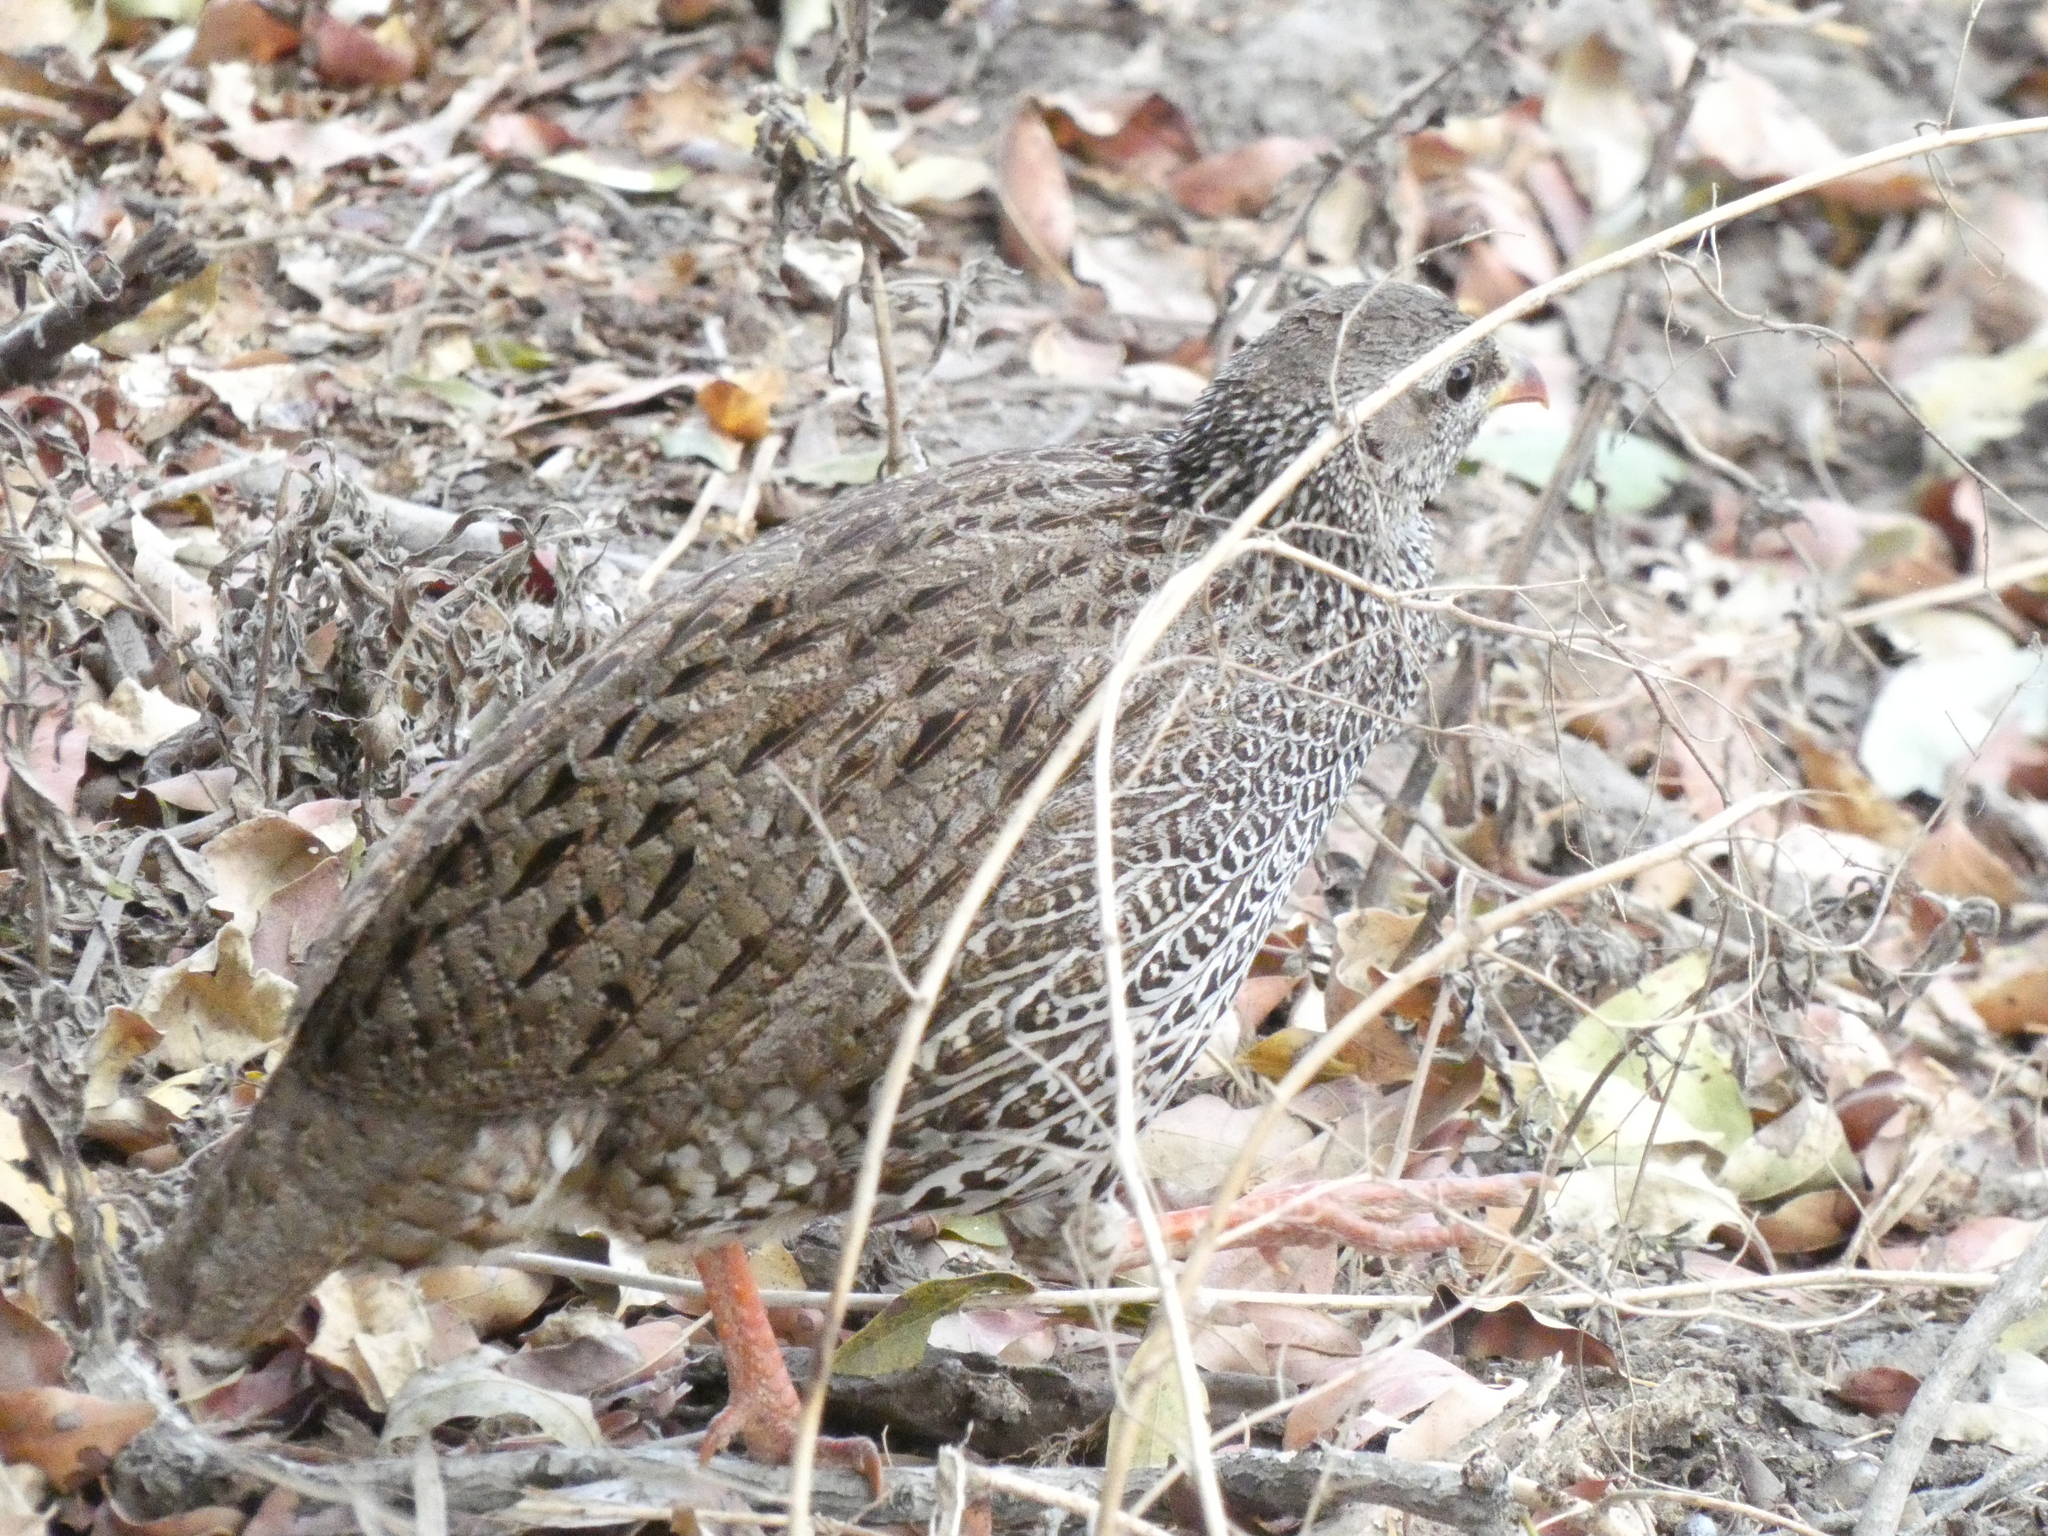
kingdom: Animalia
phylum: Chordata
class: Aves
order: Galliformes
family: Phasianidae
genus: Pternistis
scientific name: Pternistis natalensis
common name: Natal spurfowl
